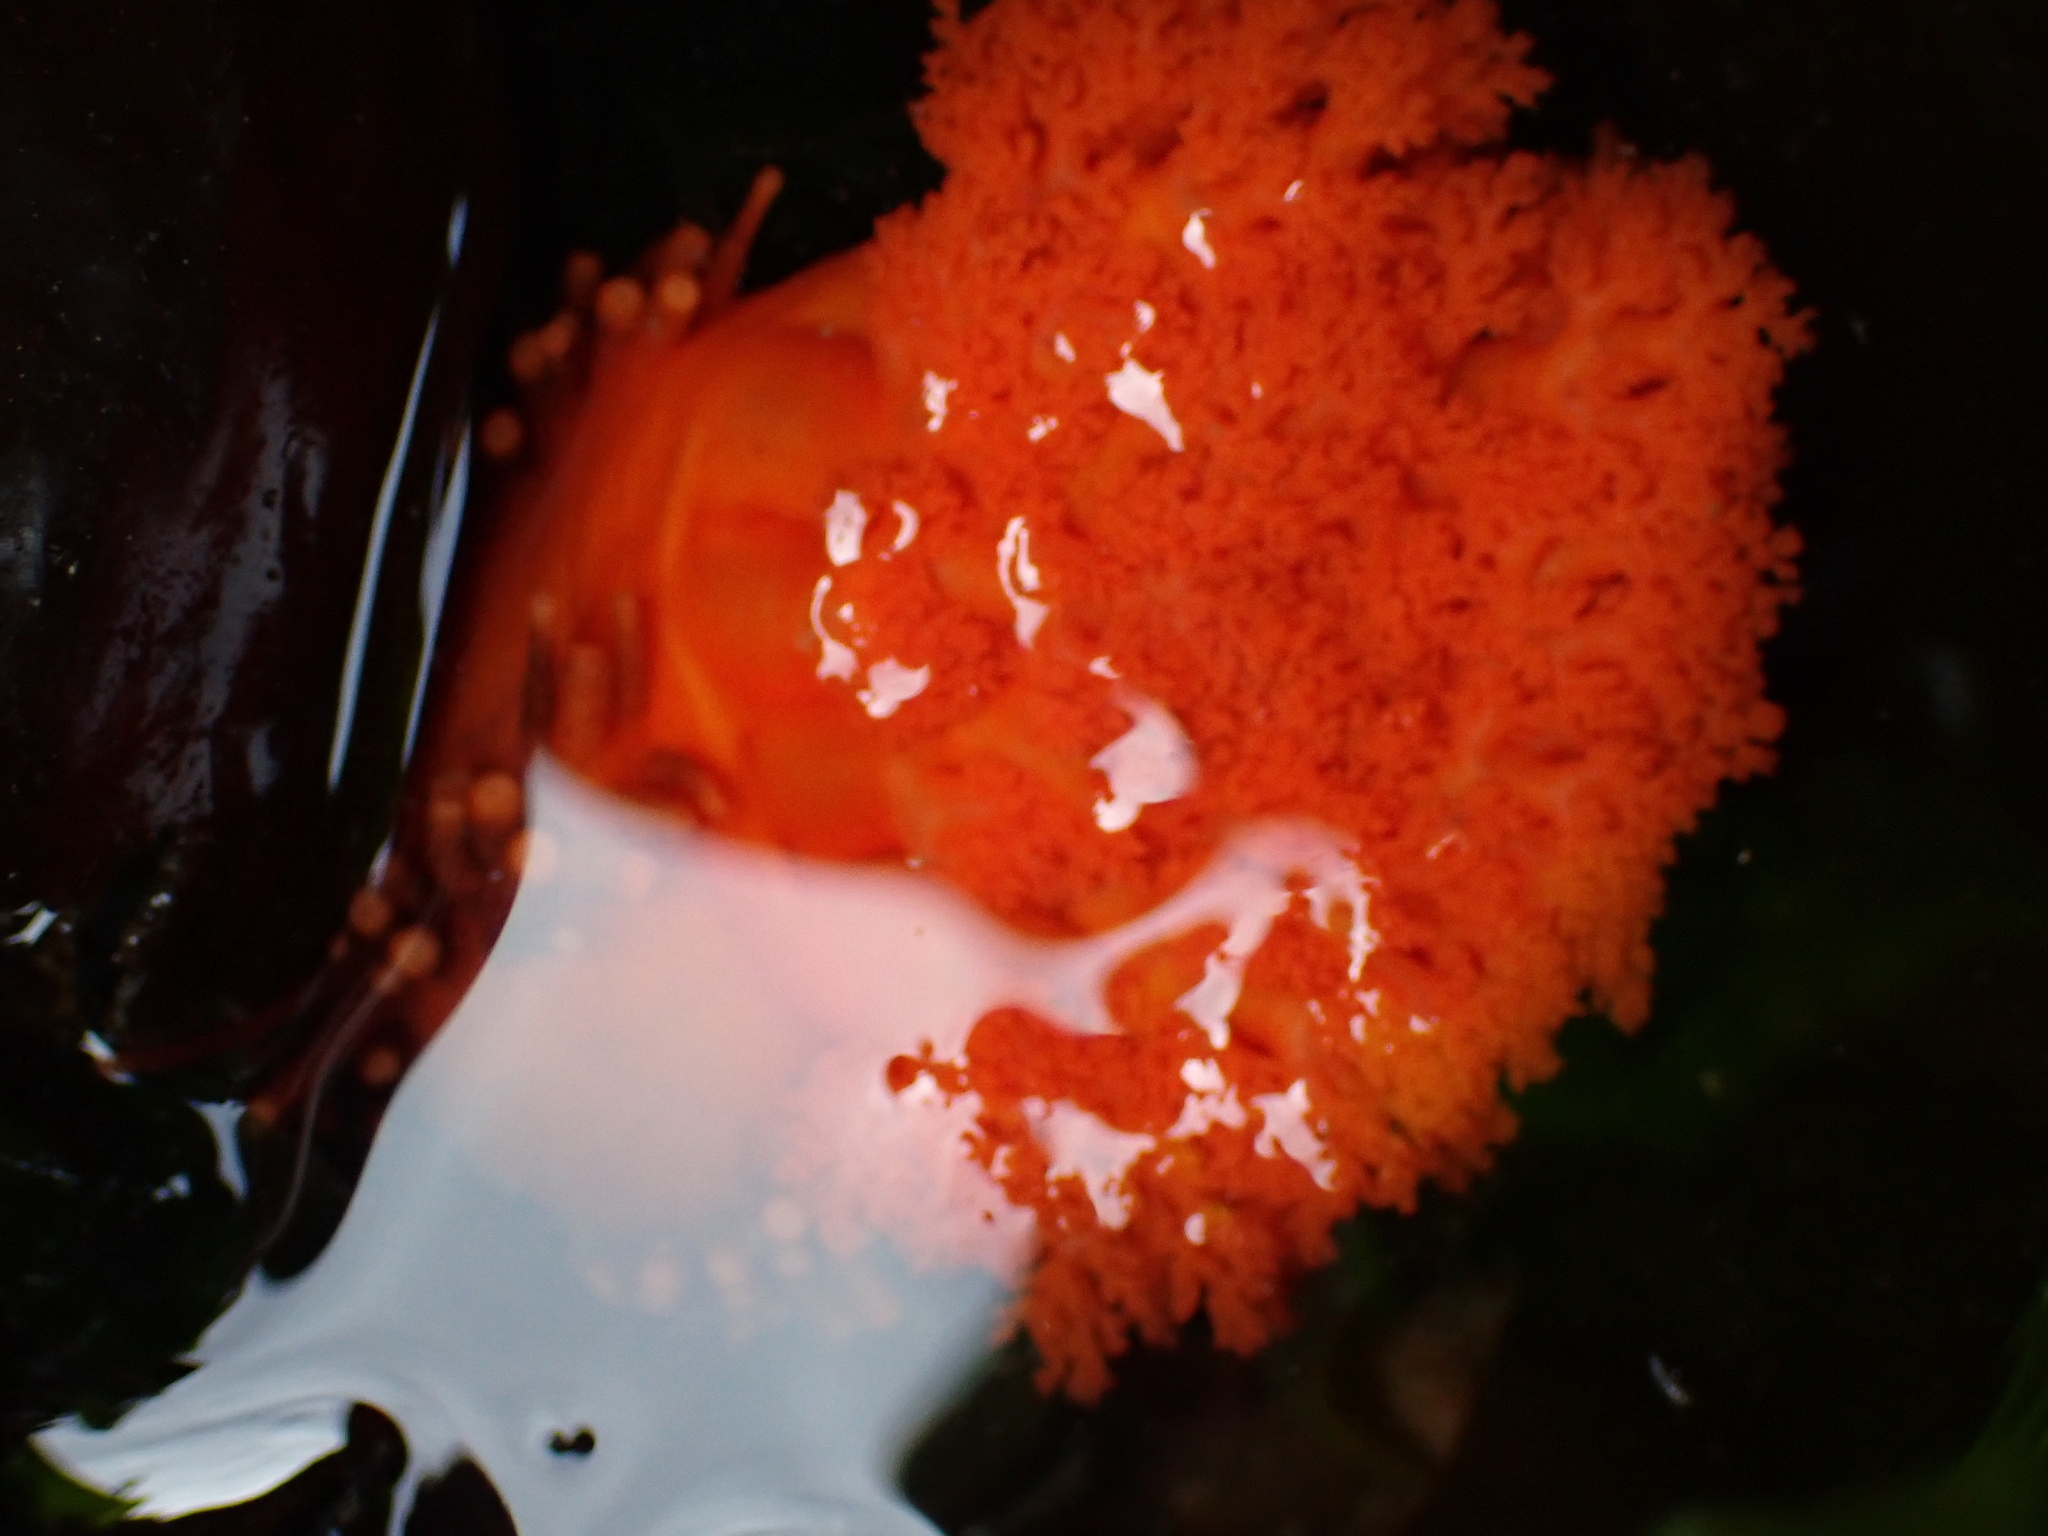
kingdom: Animalia
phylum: Echinodermata
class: Holothuroidea
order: Dendrochirotida
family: Cucumariidae
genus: Cucumaria
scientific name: Cucumaria miniata
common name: Orange sea cucumber
